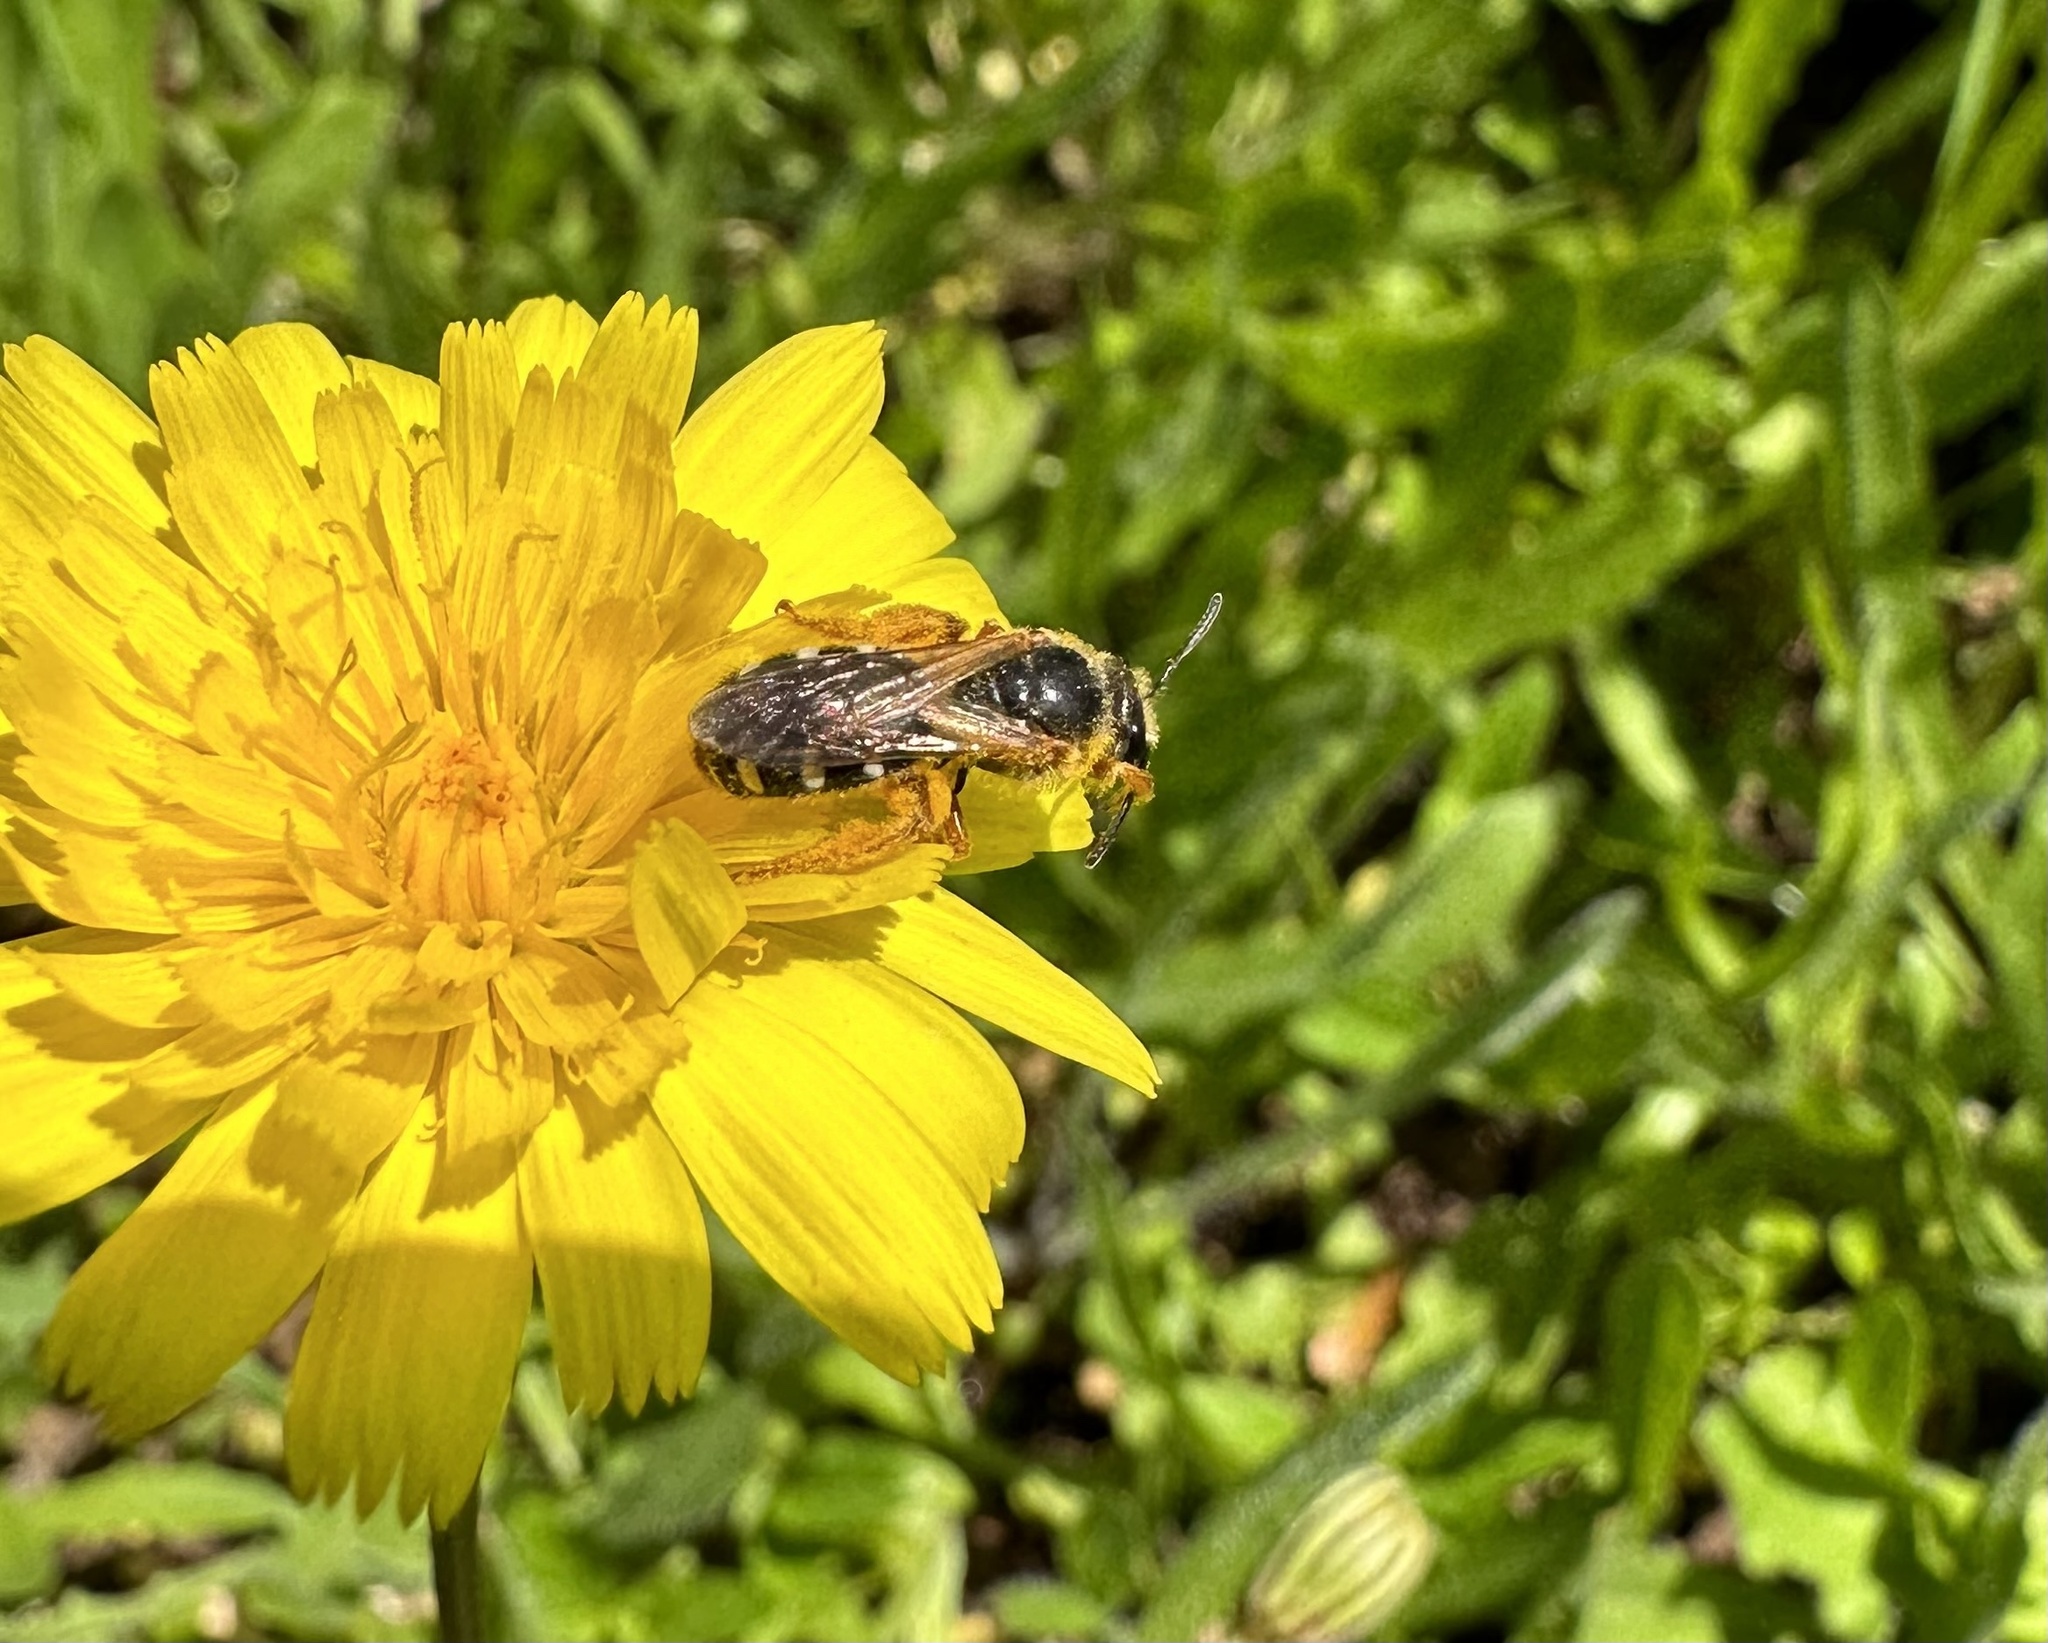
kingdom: Animalia
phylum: Arthropoda
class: Insecta
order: Hymenoptera
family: Halictidae
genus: Ruizantheda
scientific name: Ruizantheda proxima
